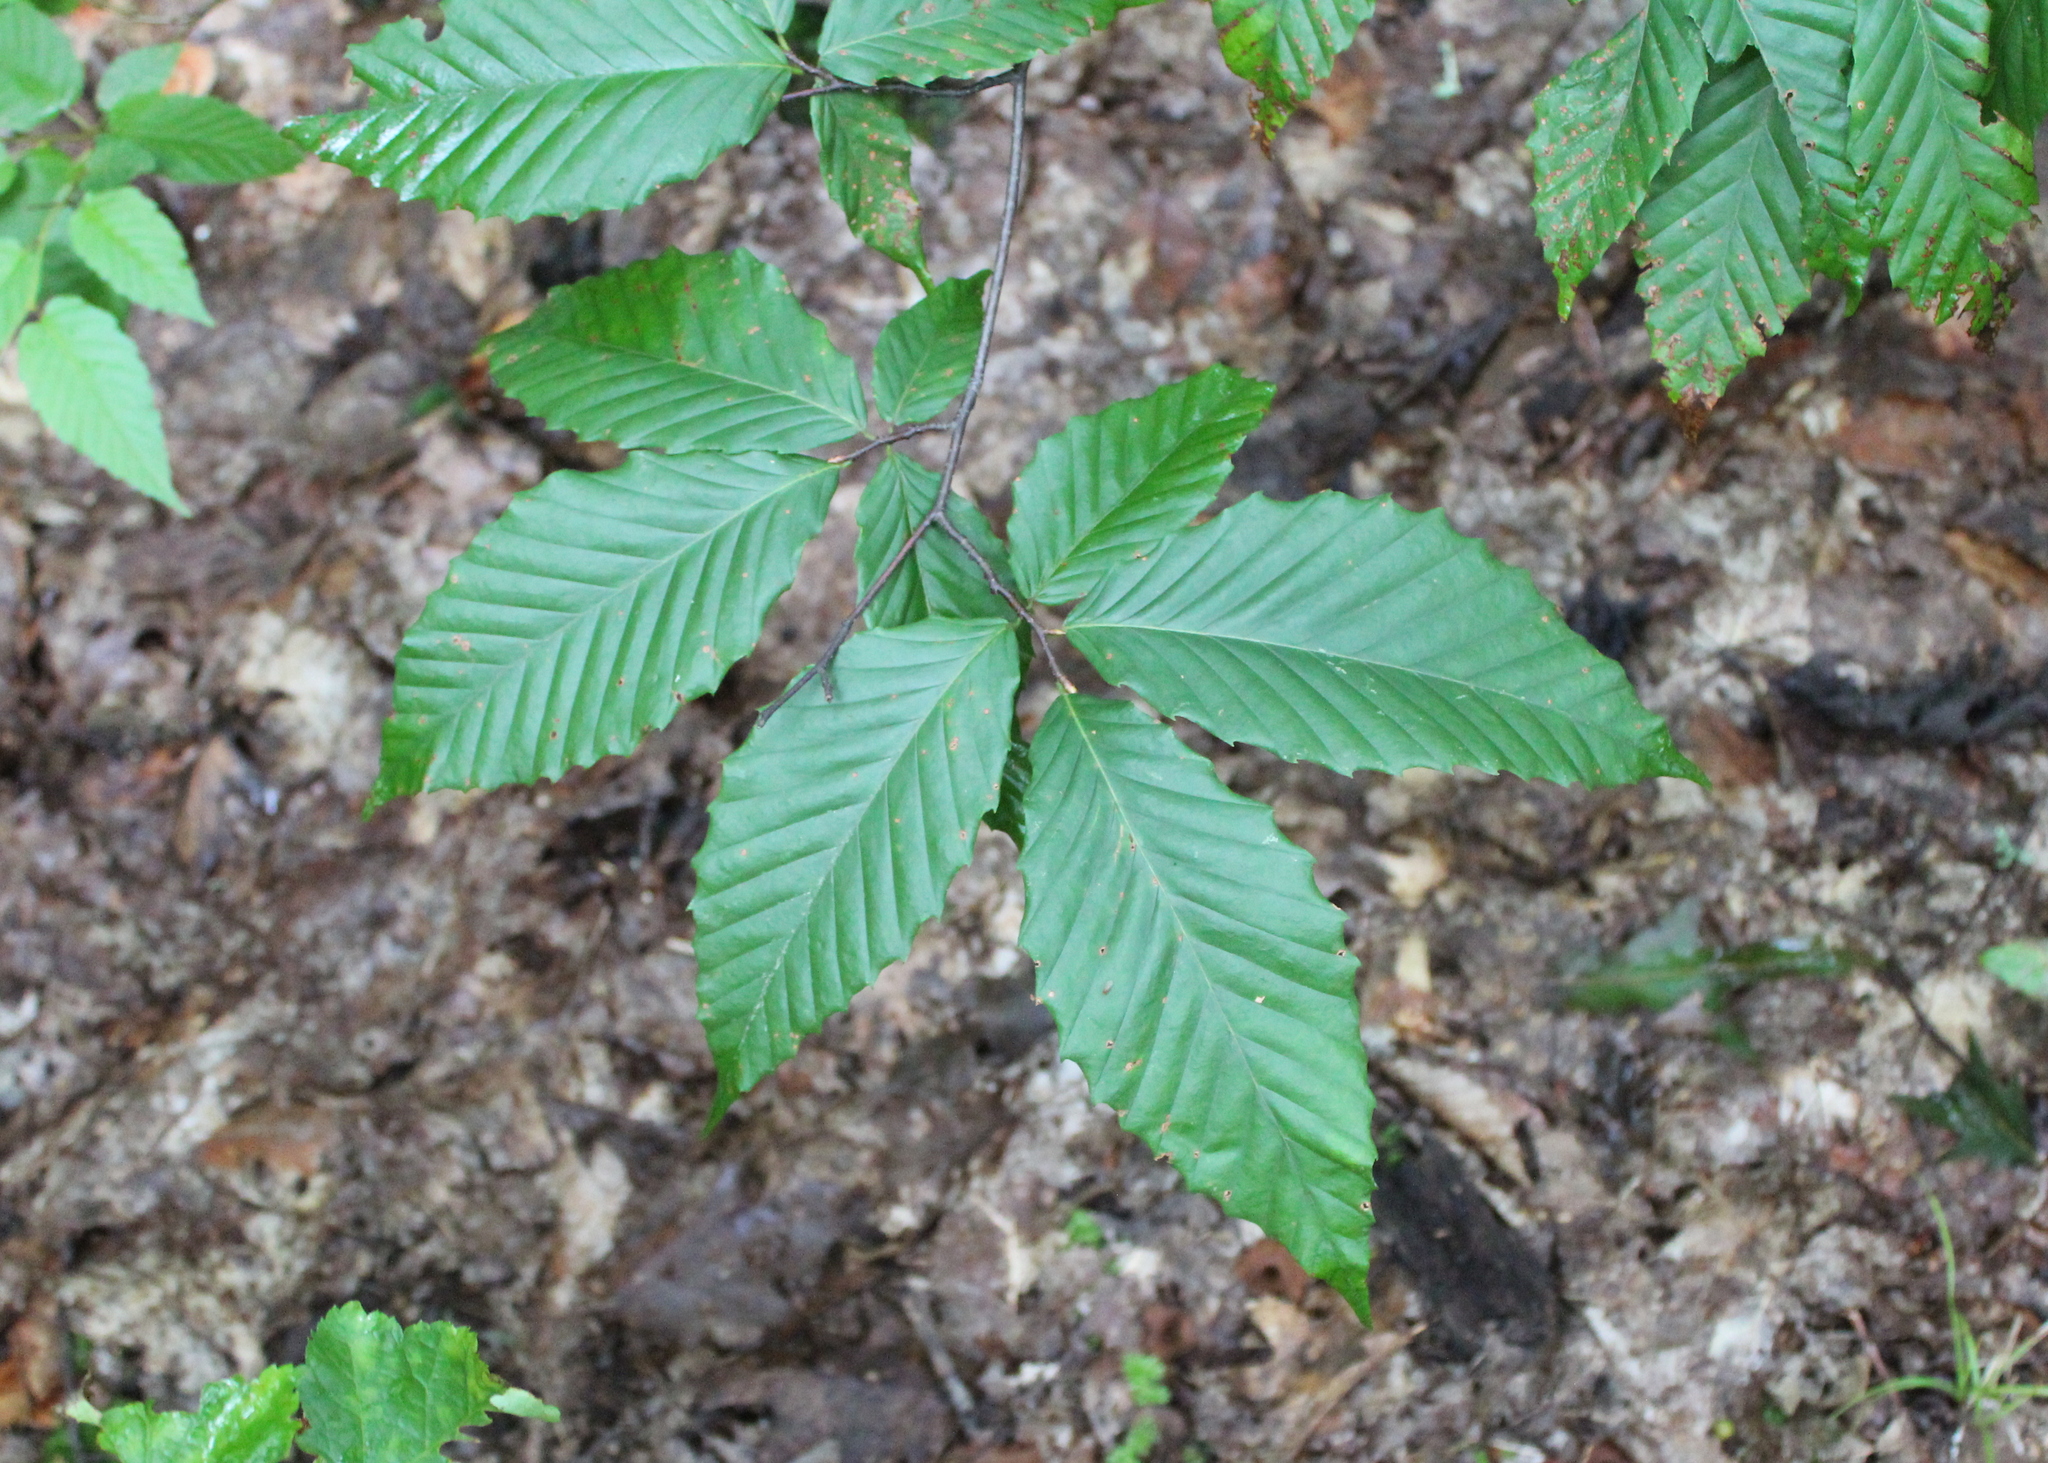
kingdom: Plantae
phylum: Tracheophyta
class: Magnoliopsida
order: Fagales
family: Fagaceae
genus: Fagus
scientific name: Fagus grandifolia
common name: American beech
